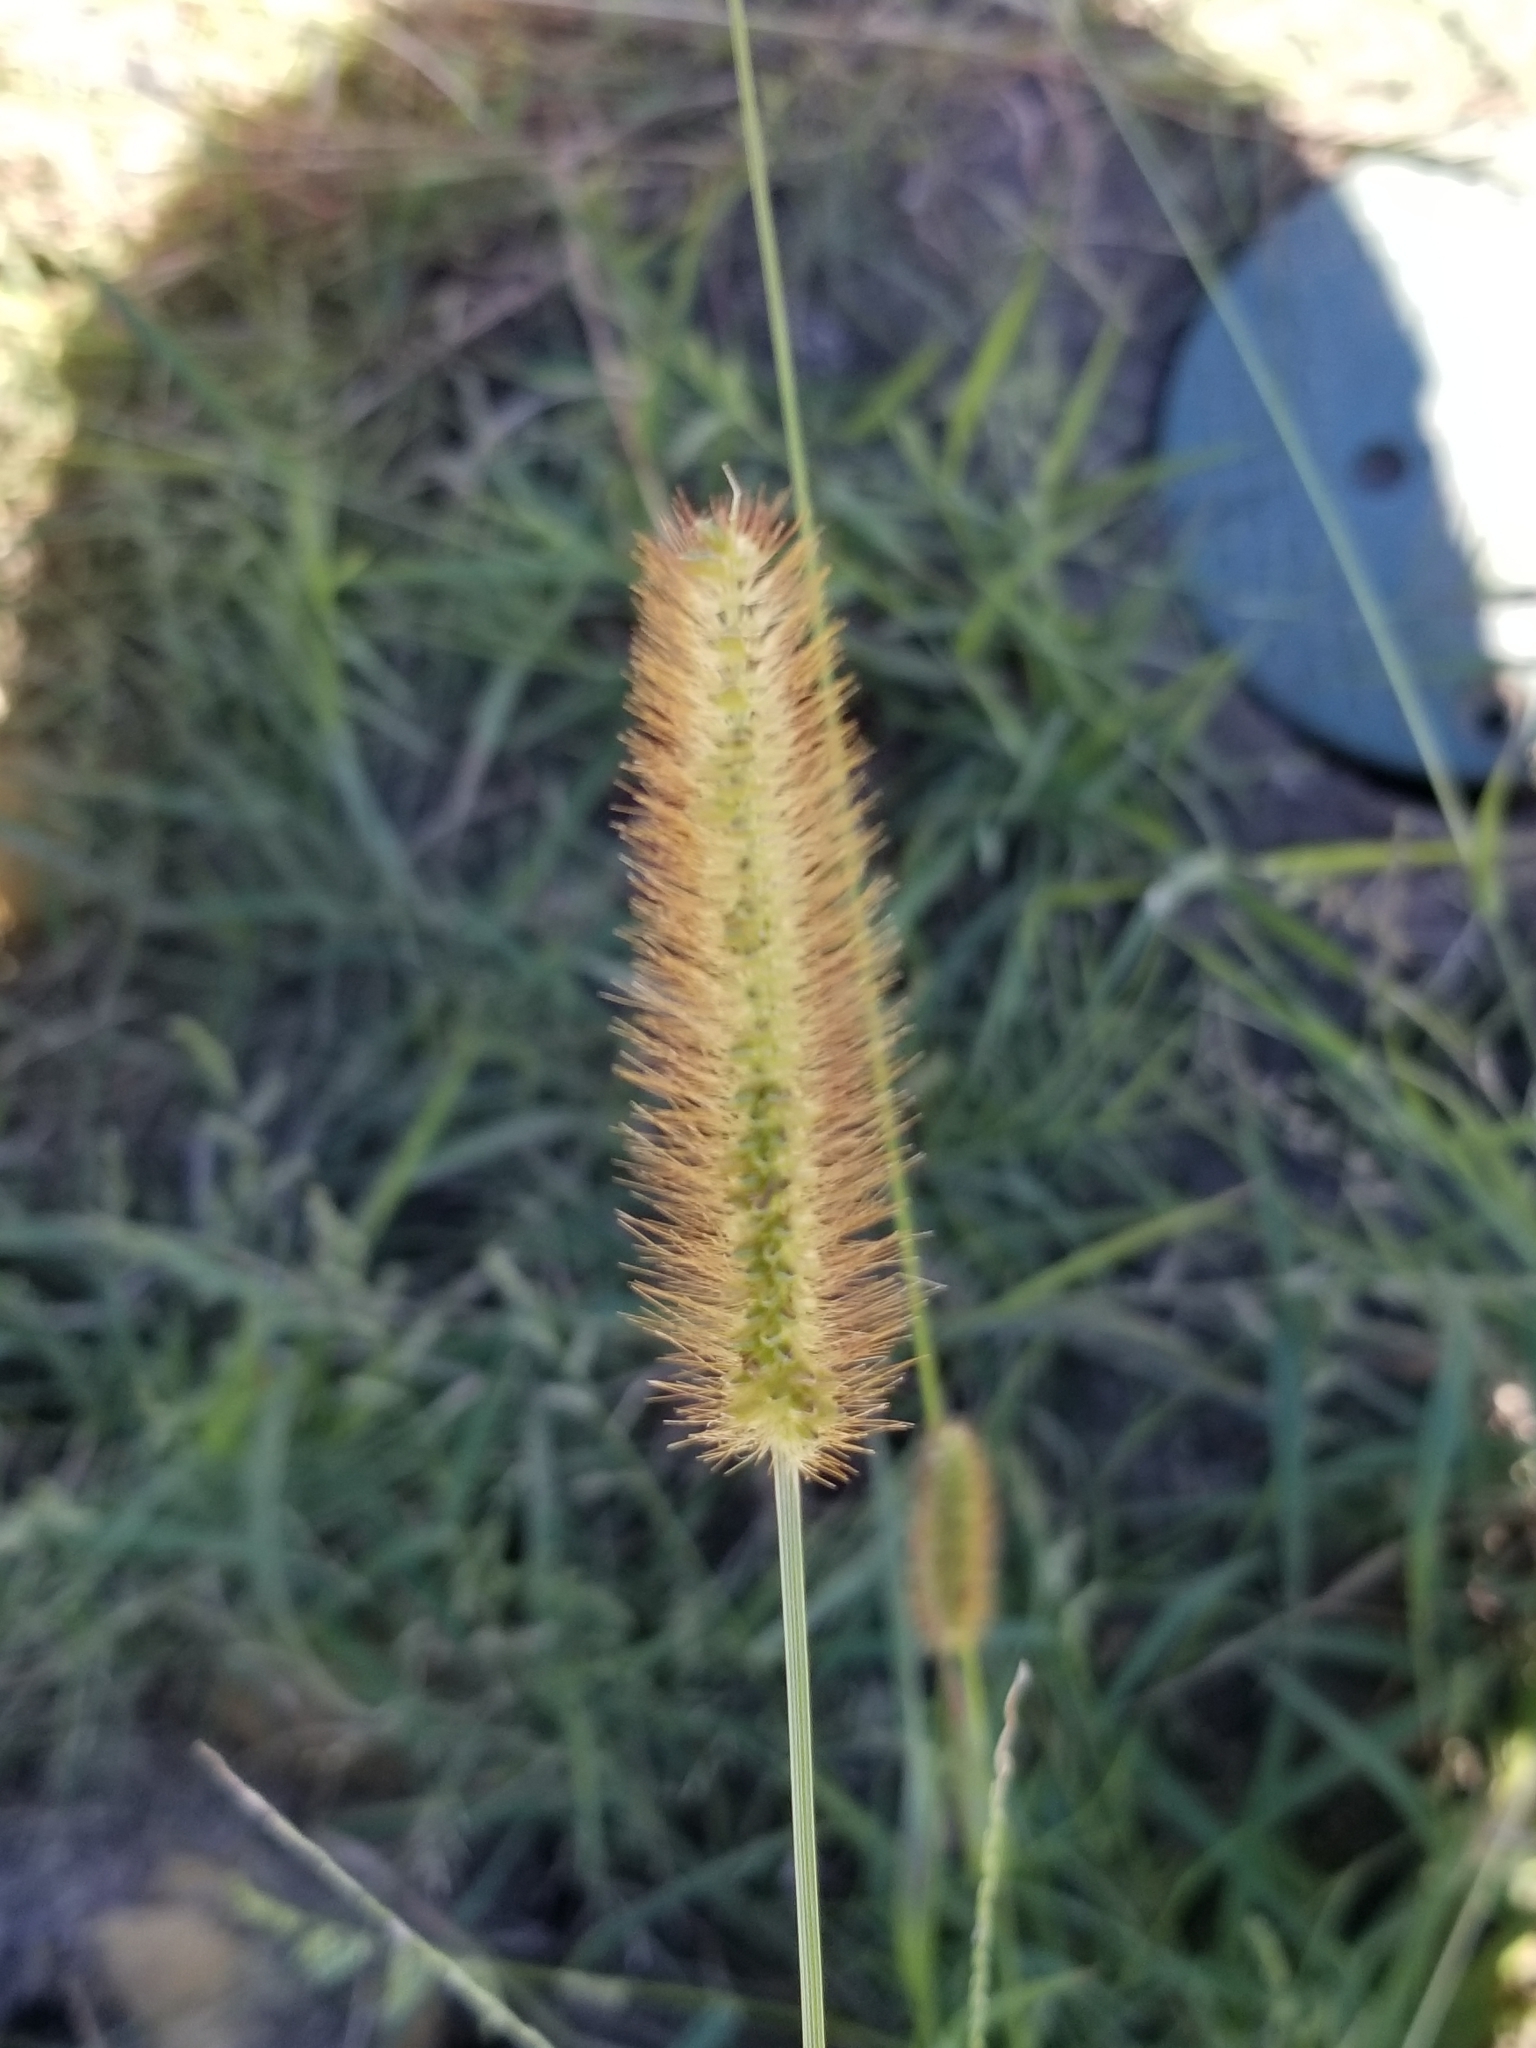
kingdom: Plantae
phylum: Tracheophyta
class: Liliopsida
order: Poales
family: Poaceae
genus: Setaria
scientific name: Setaria parviflora
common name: Knotroot bristle-grass
